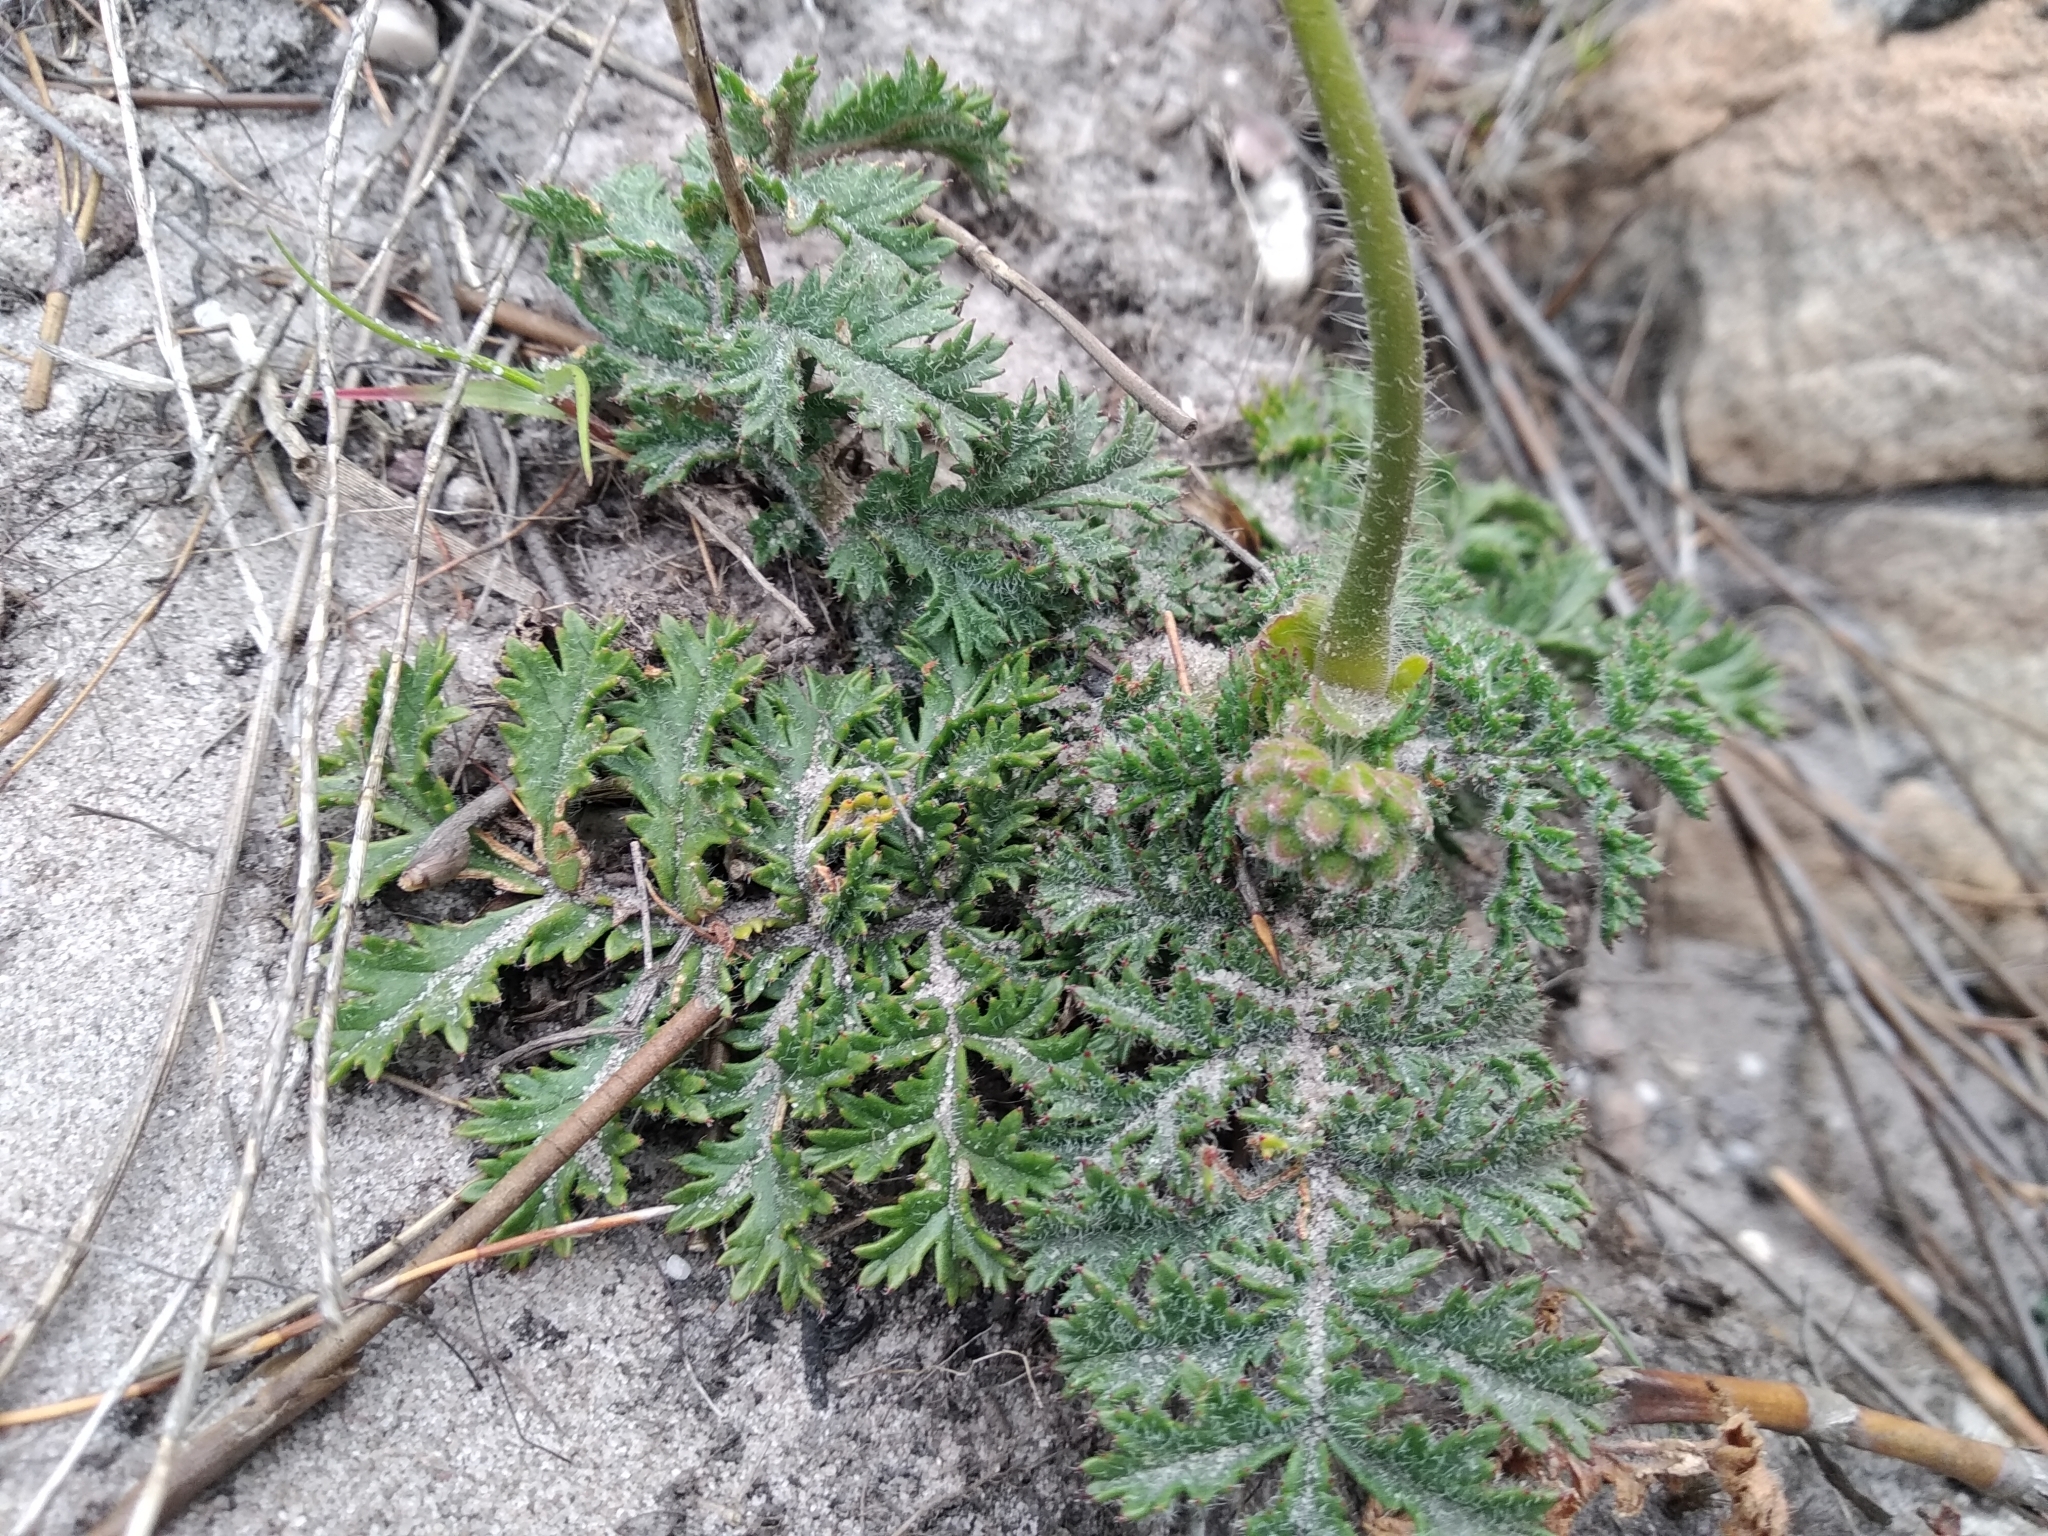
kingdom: Plantae
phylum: Tracheophyta
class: Magnoliopsida
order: Geraniales
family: Geraniaceae
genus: Pelargonium
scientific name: Pelargonium triste
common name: Night-scent pelargonium
